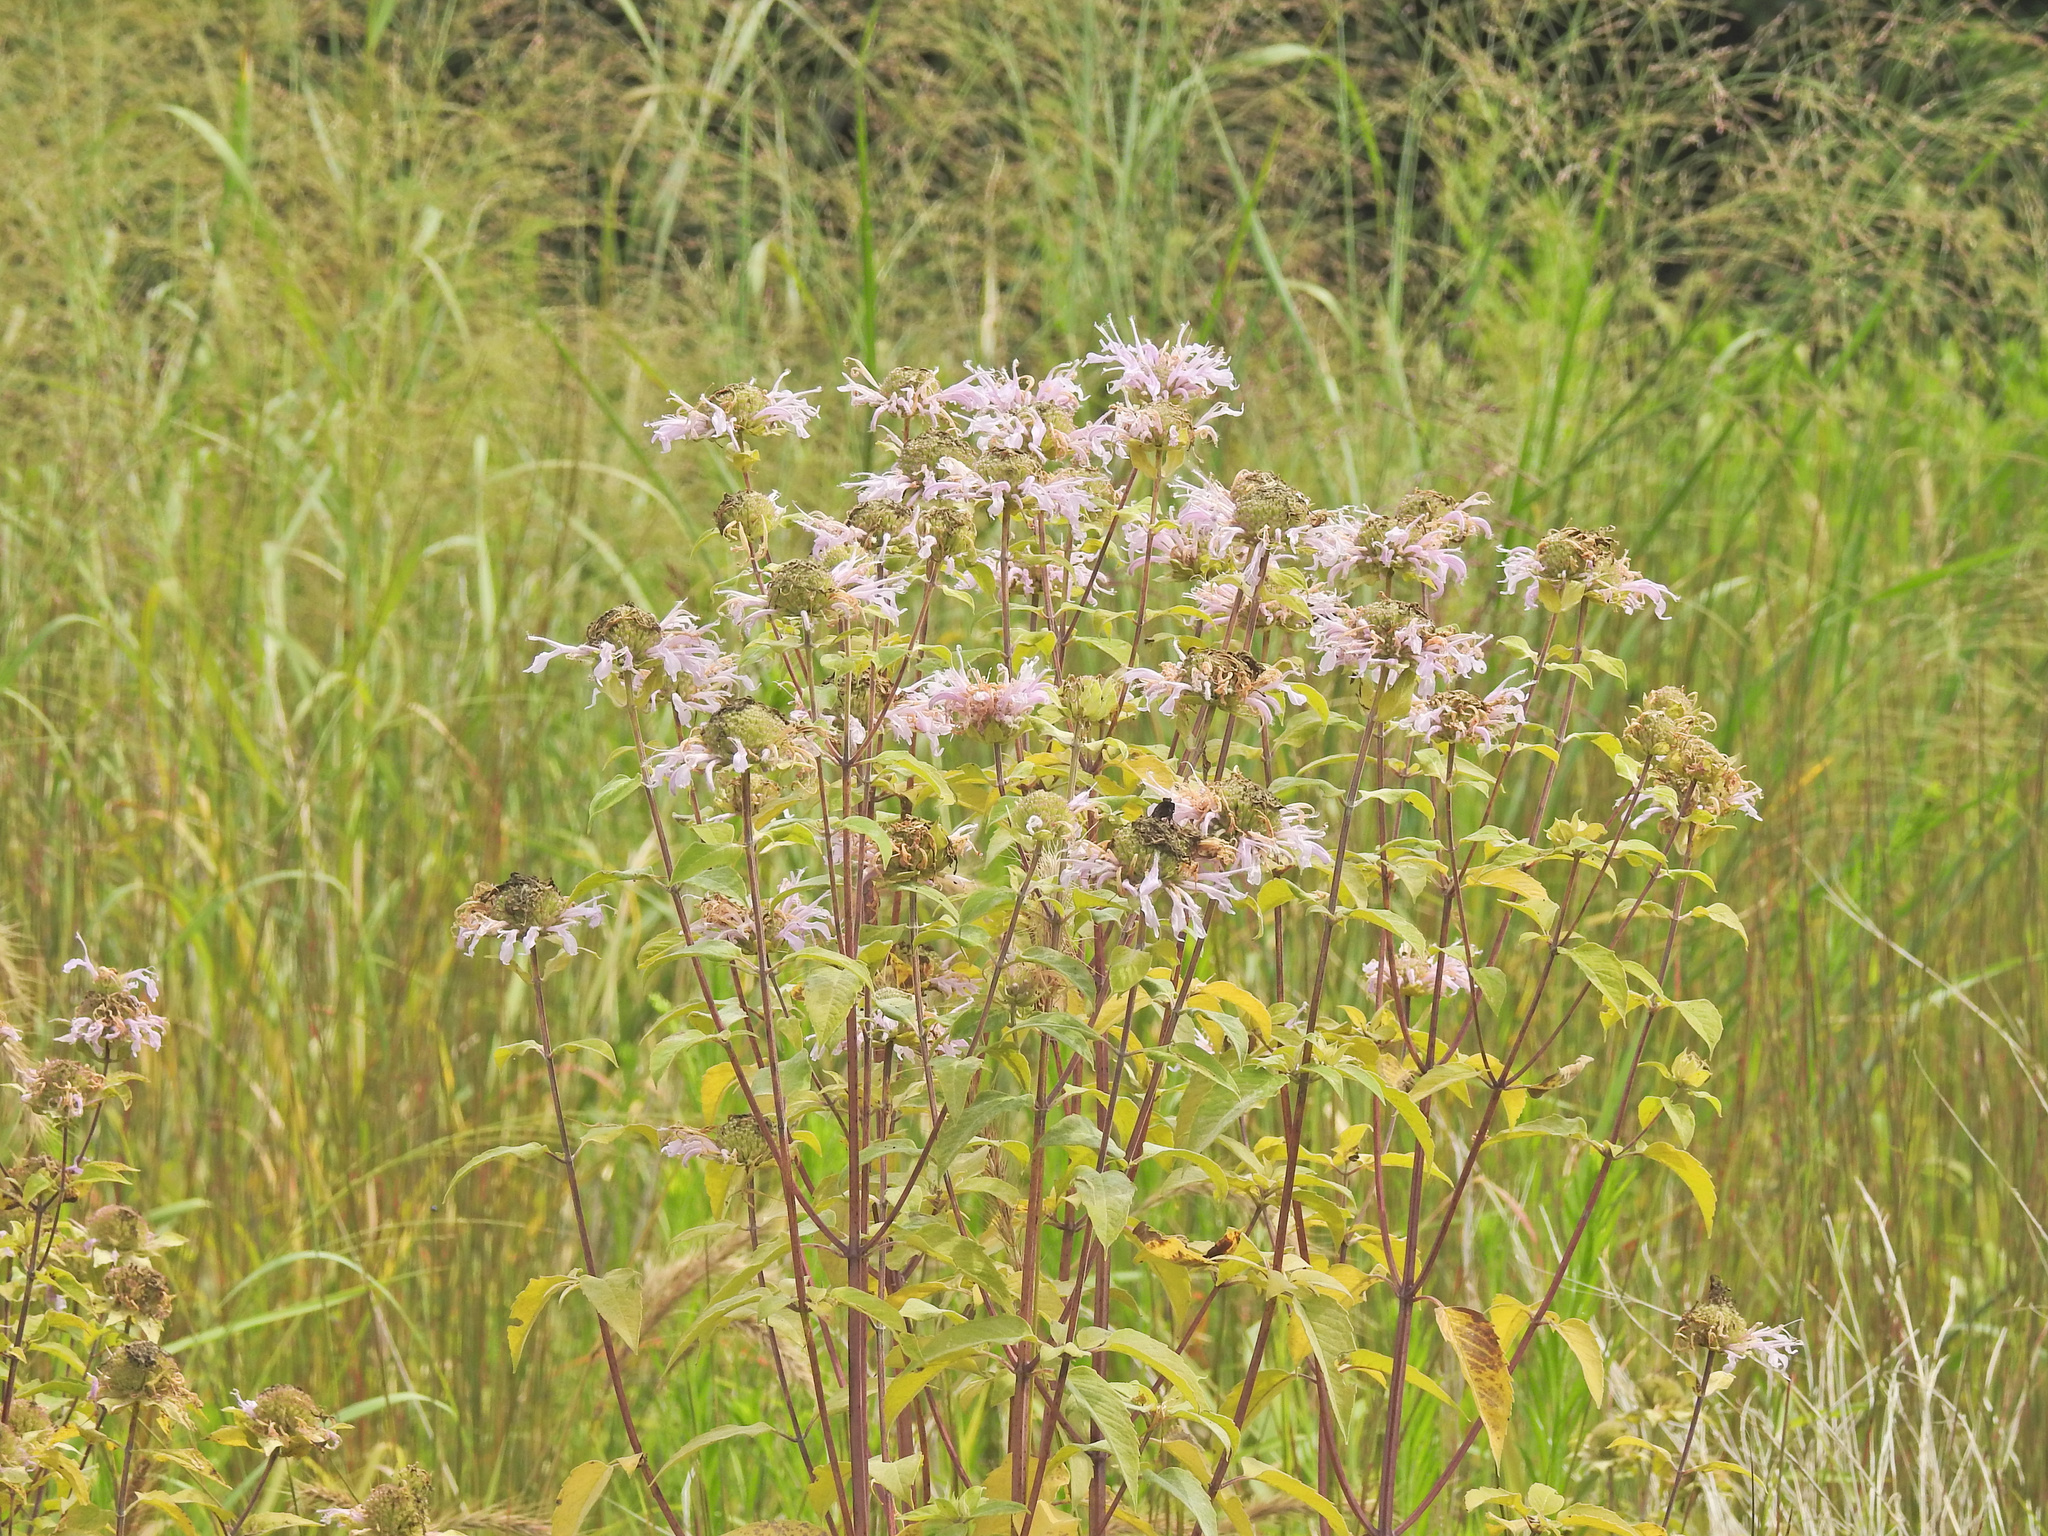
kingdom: Plantae
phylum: Tracheophyta
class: Magnoliopsida
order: Lamiales
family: Lamiaceae
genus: Monarda
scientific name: Monarda fistulosa
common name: Purple beebalm
